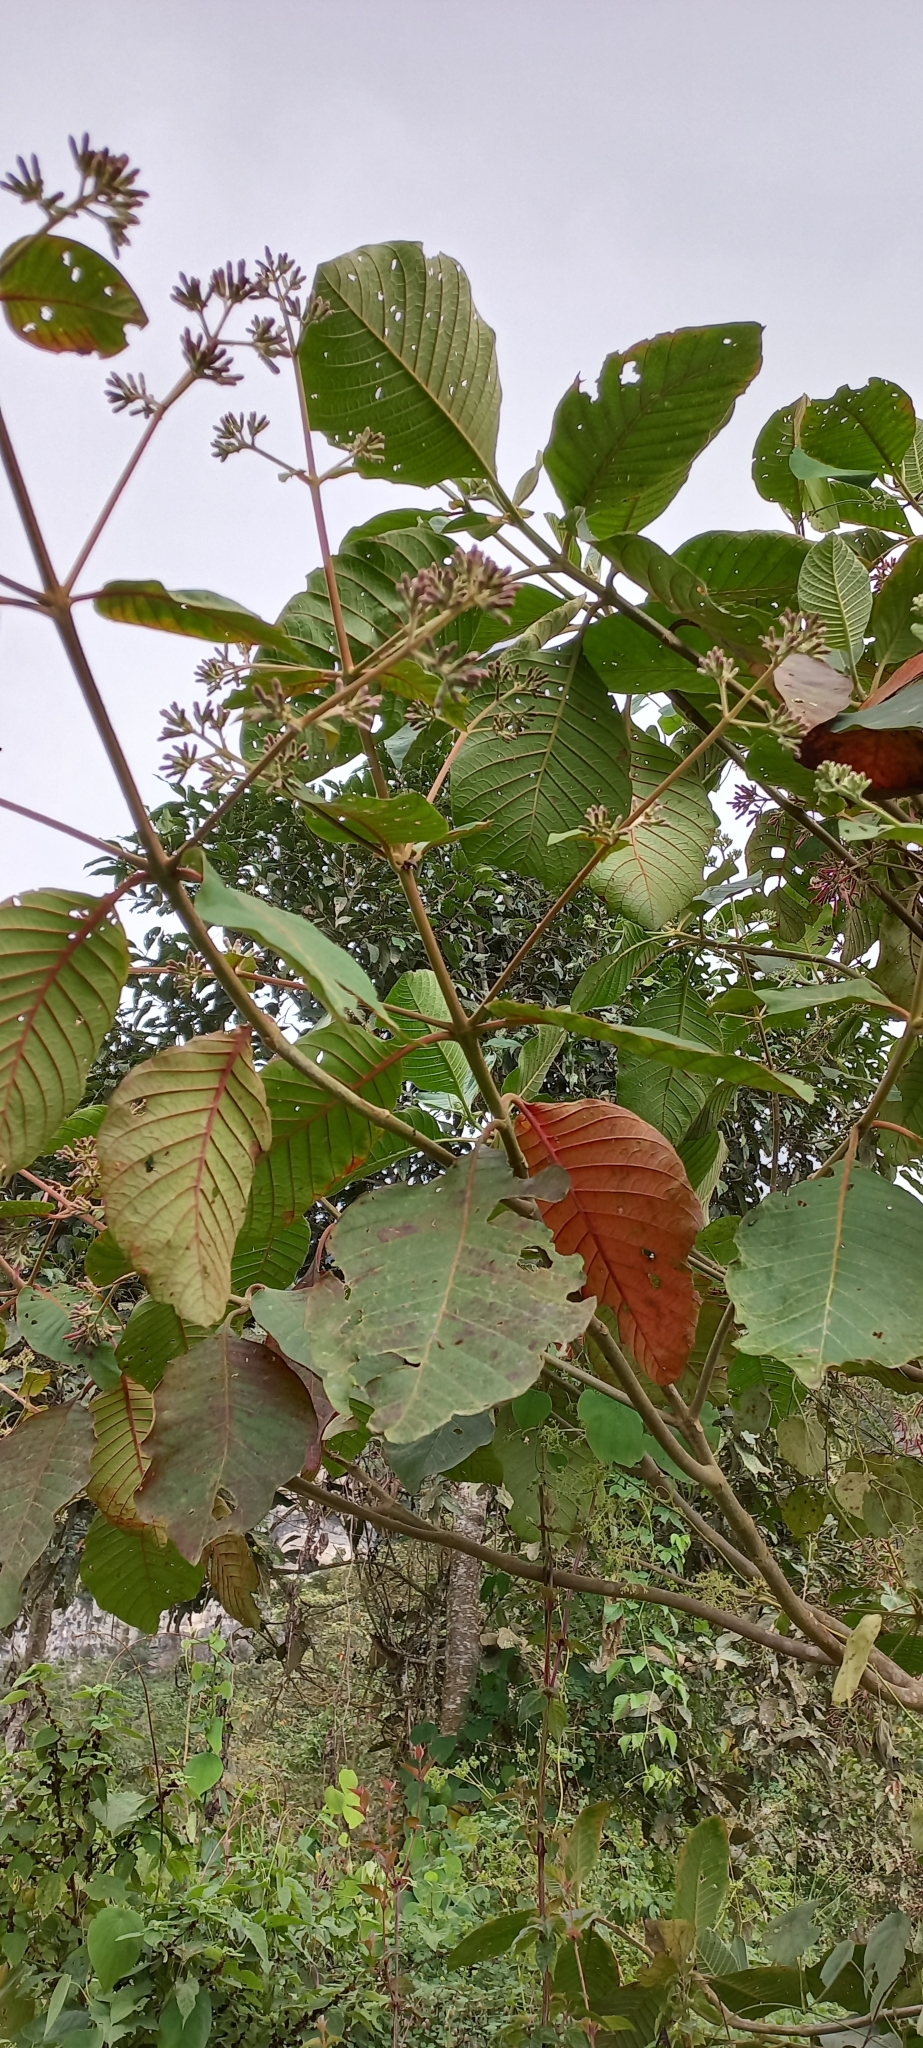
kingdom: Plantae
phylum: Tracheophyta
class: Magnoliopsida
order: Gentianales
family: Rubiaceae
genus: Cinchona
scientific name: Cinchona pubescens
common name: Quinine
